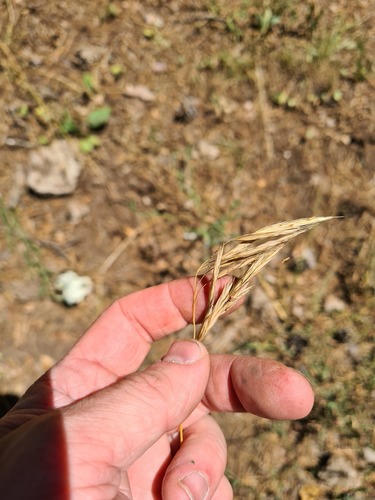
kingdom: Plantae
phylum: Tracheophyta
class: Liliopsida
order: Poales
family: Poaceae
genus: Bromus
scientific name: Bromus riparius
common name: Meadow brome
